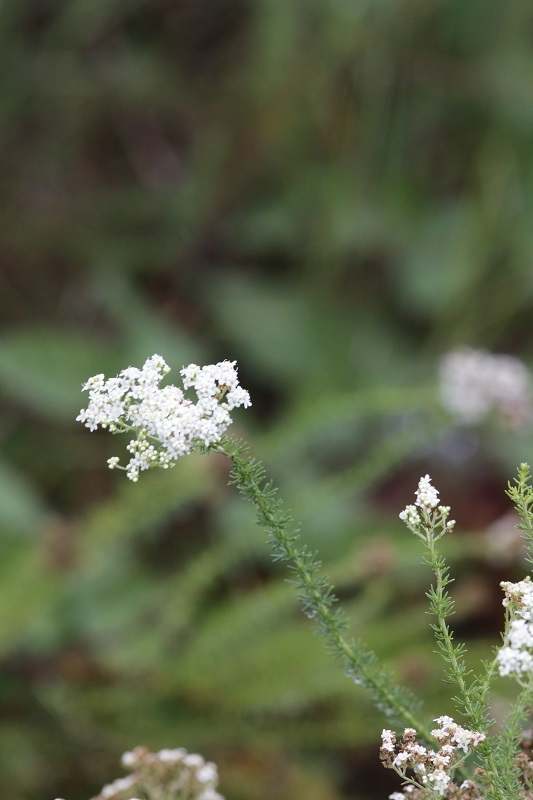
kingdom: Plantae
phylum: Tracheophyta
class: Magnoliopsida
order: Lamiales
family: Scrophulariaceae
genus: Selago
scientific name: Selago corymbosa
